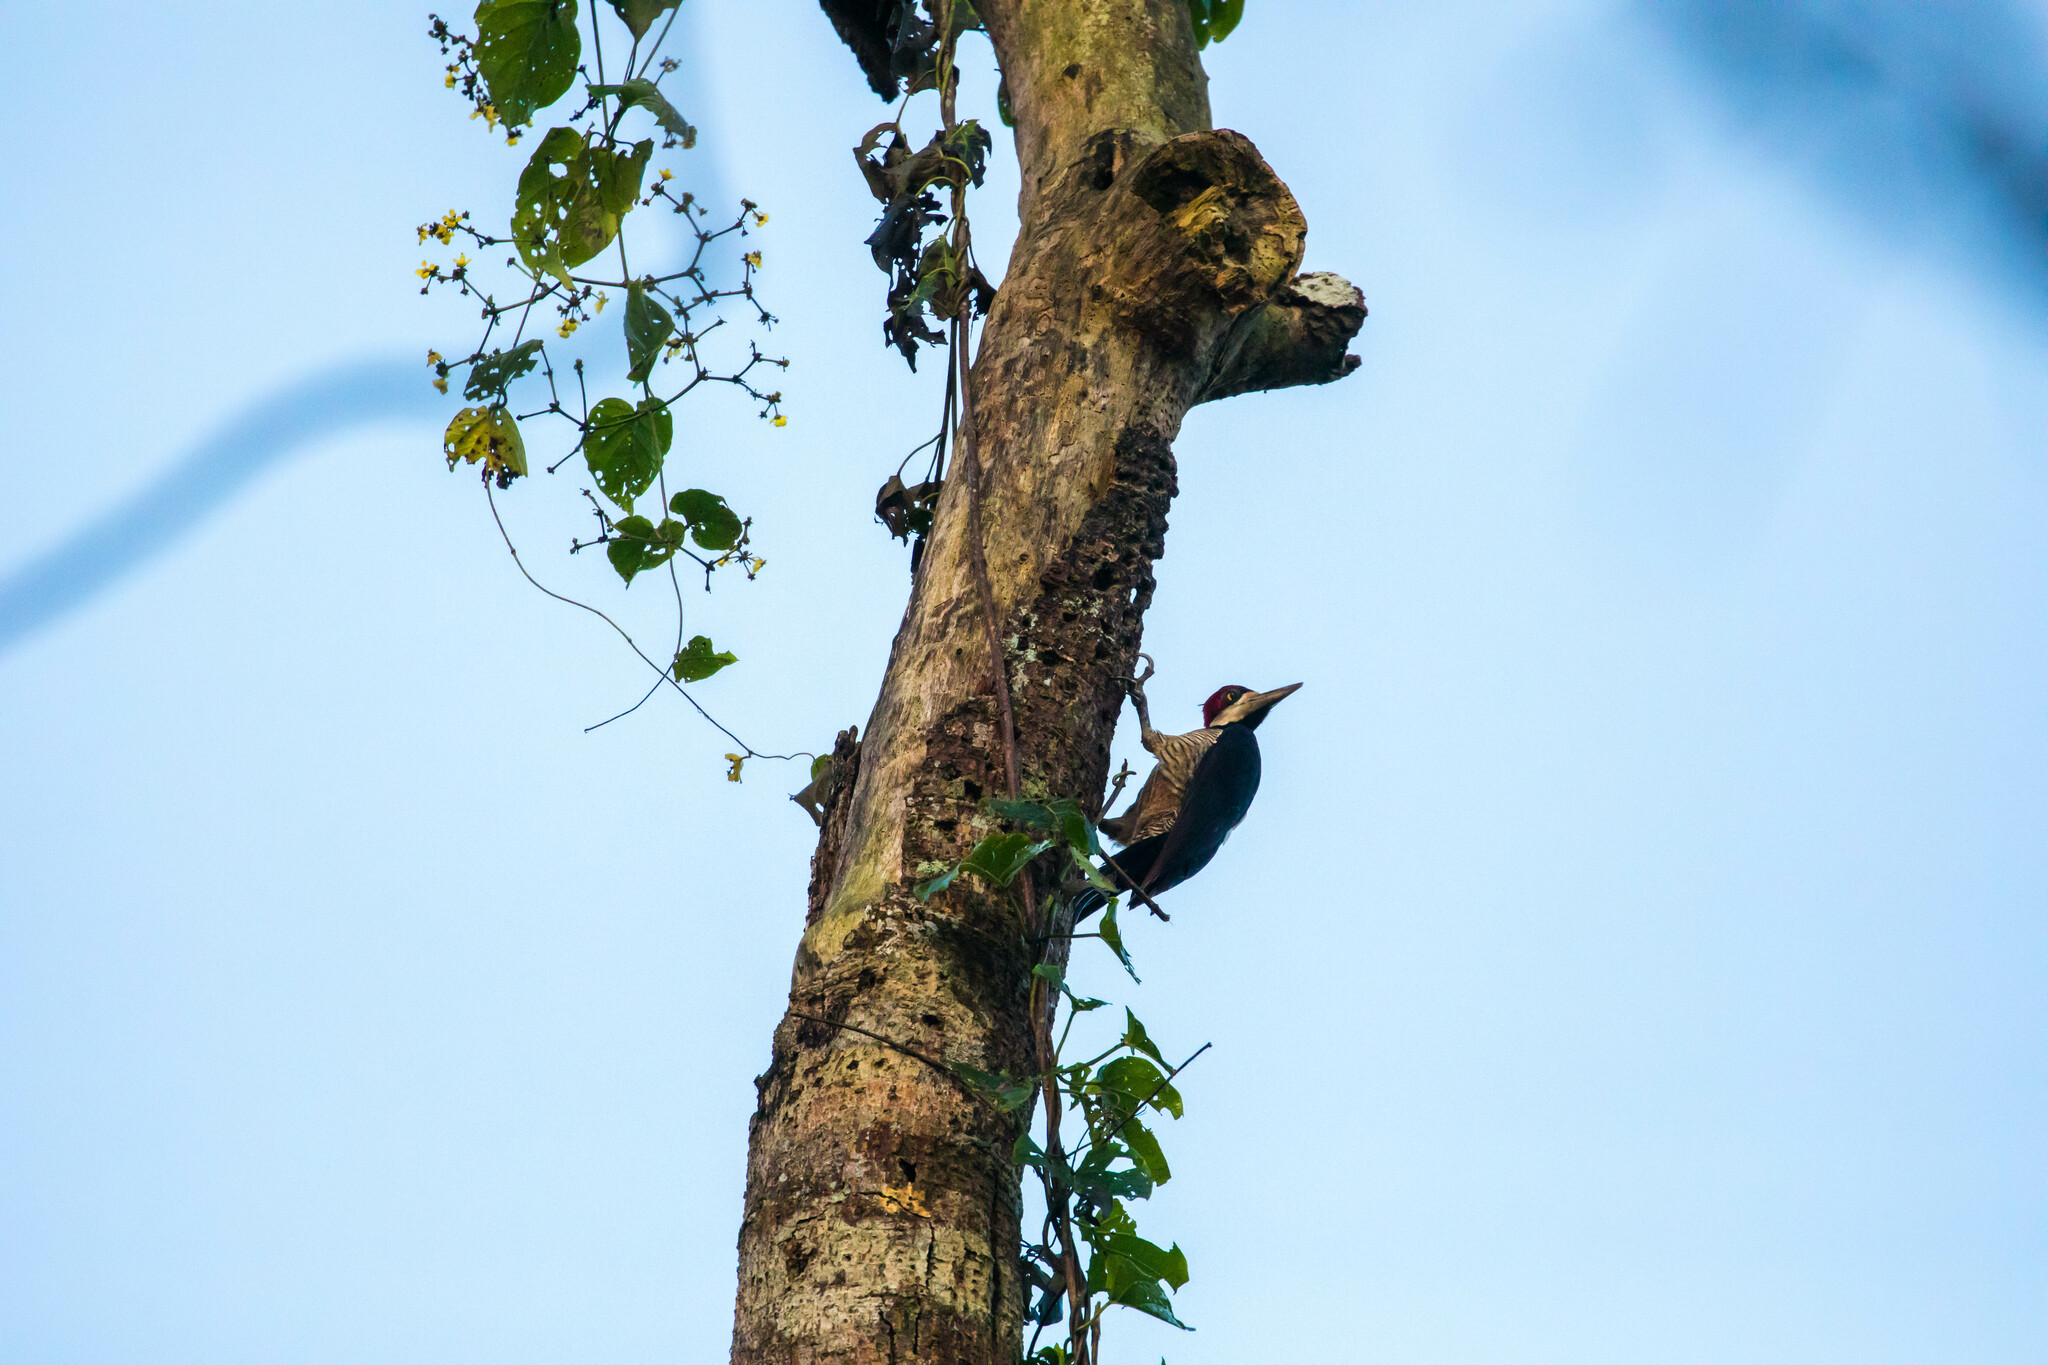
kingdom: Animalia
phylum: Chordata
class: Aves
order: Piciformes
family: Picidae
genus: Campephilus
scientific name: Campephilus melanoleucos
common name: Crimson-crested woodpecker
